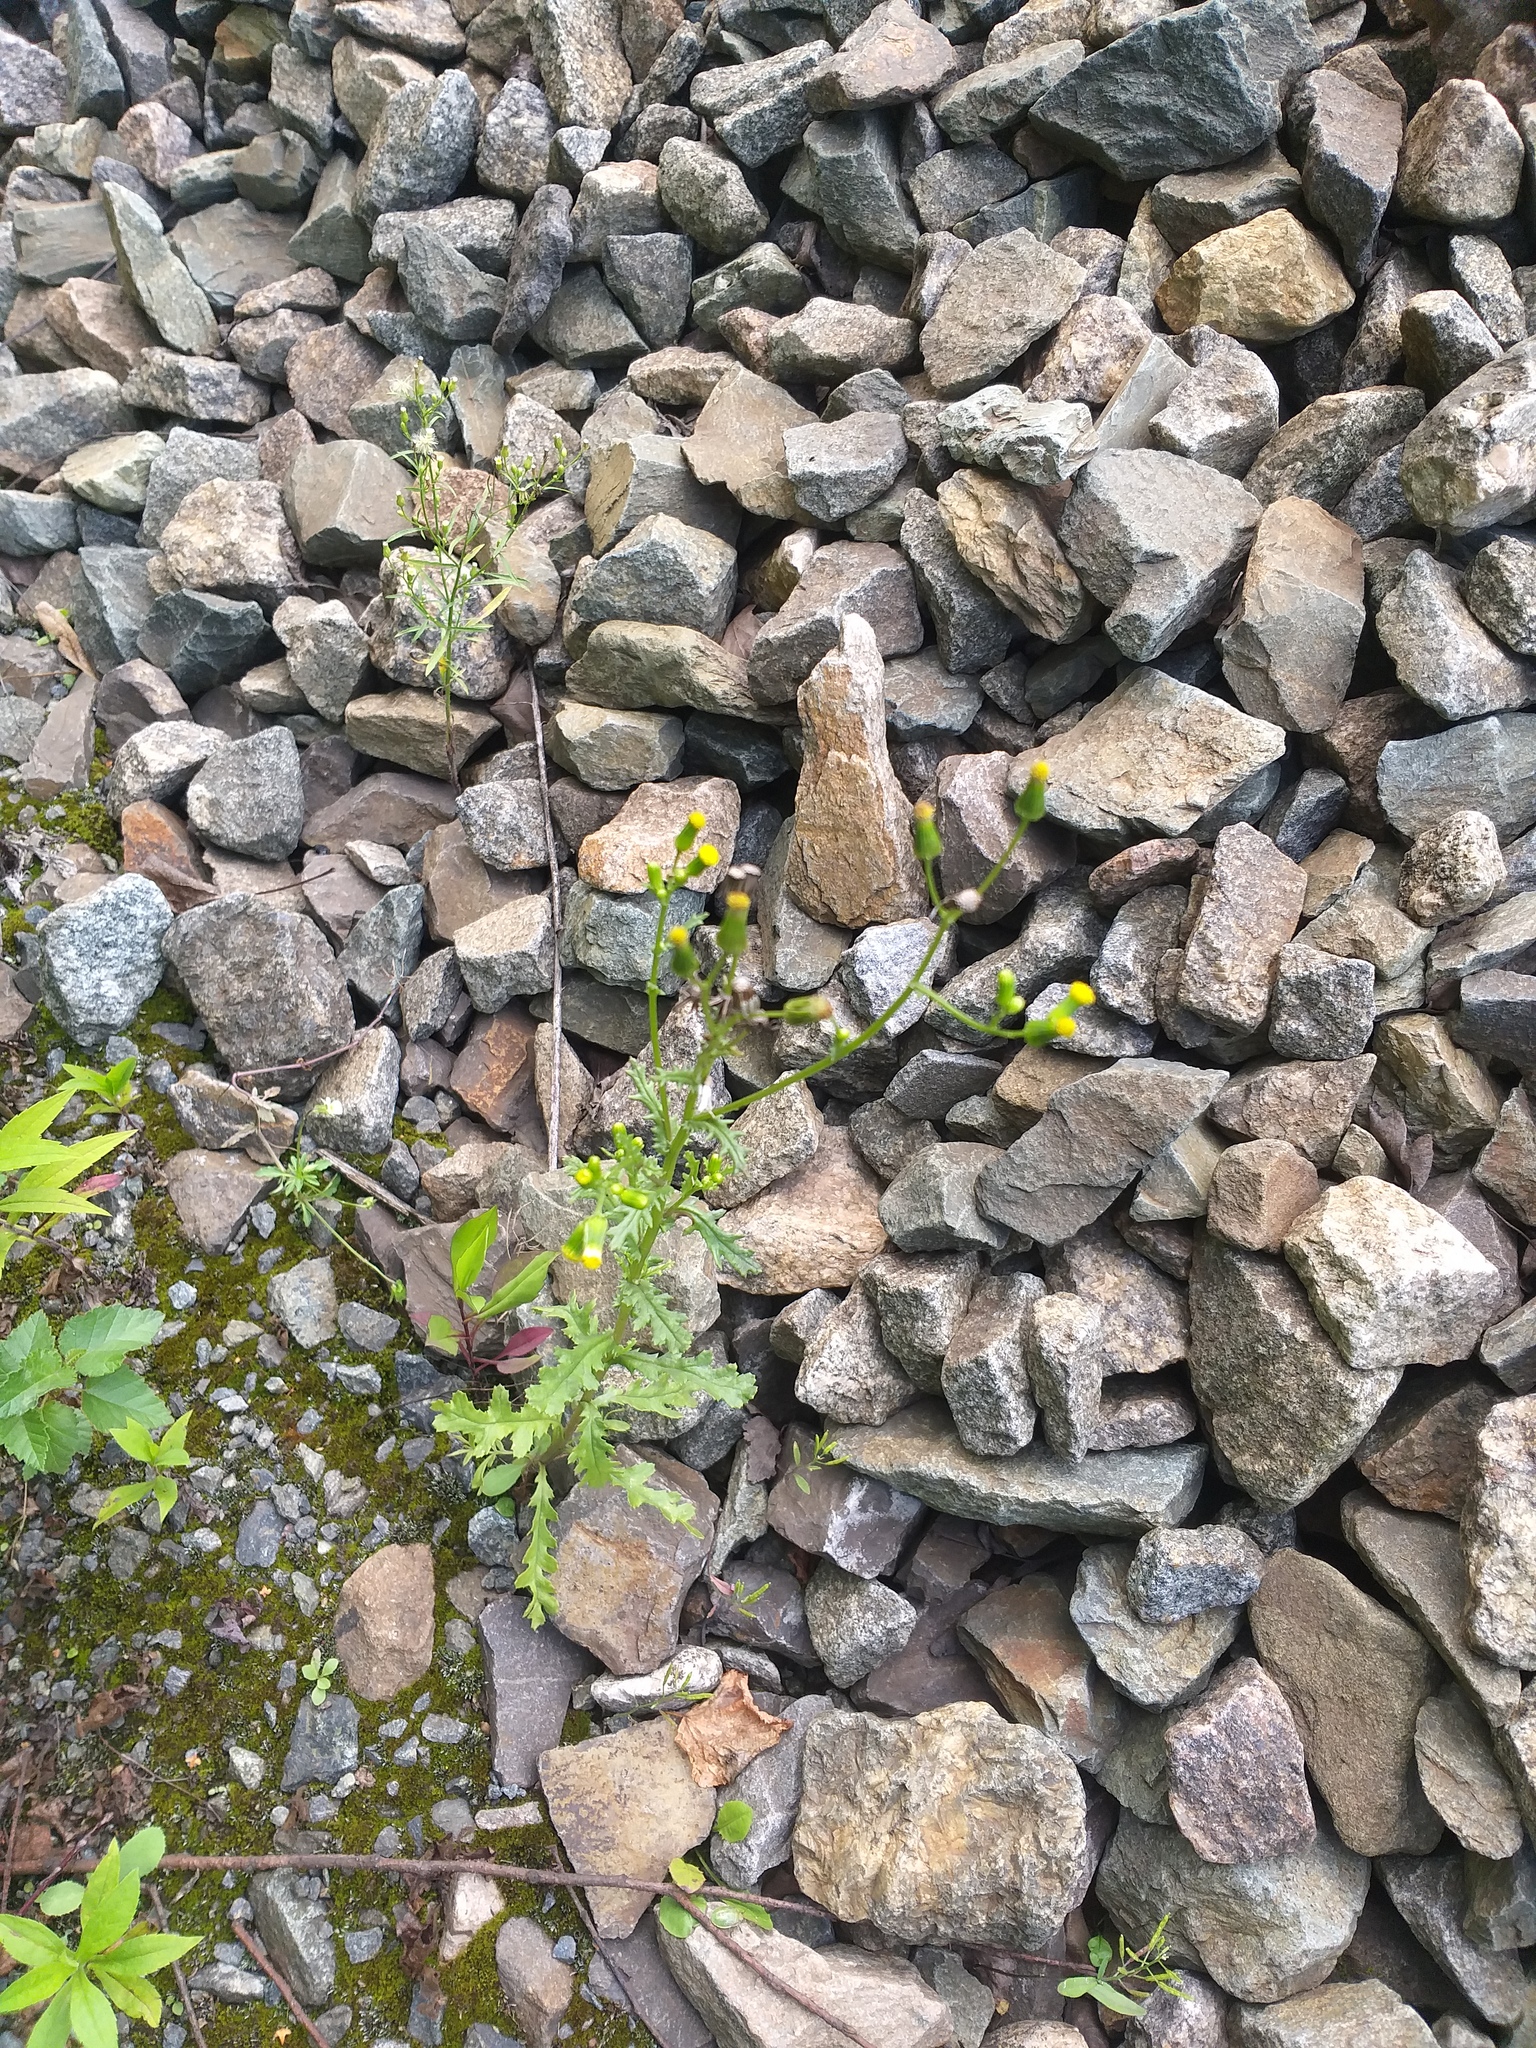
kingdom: Plantae
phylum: Tracheophyta
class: Magnoliopsida
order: Asterales
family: Asteraceae
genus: Senecio
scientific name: Senecio vulgaris
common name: Old-man-in-the-spring
